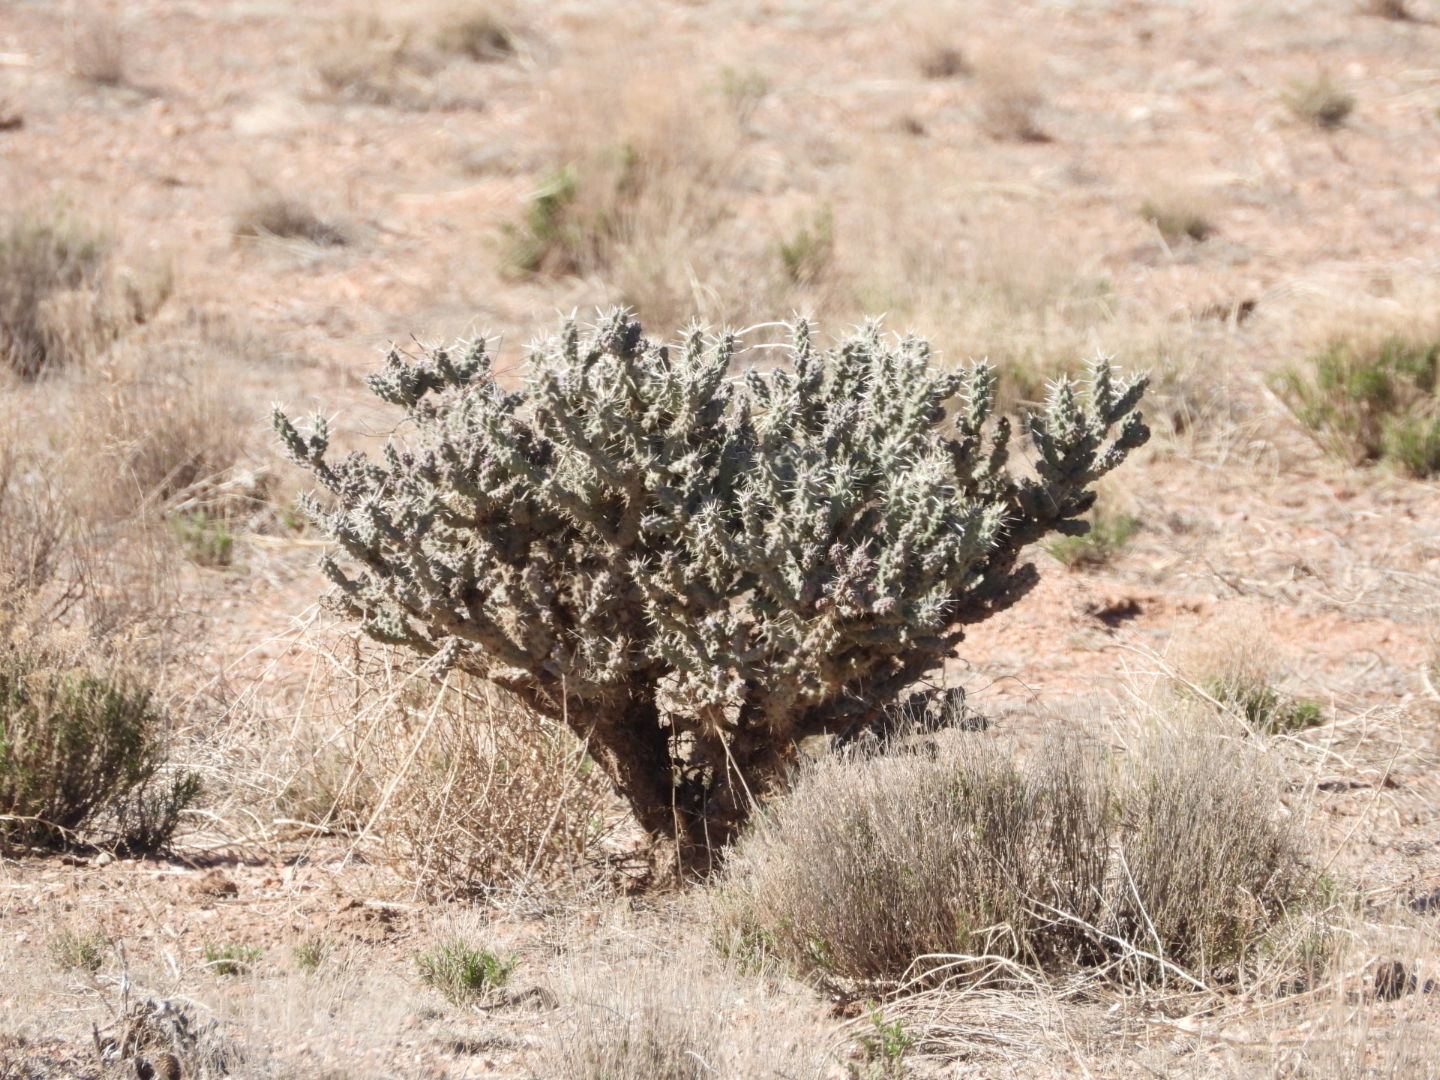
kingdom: Plantae
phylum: Tracheophyta
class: Magnoliopsida
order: Caryophyllales
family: Cactaceae
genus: Cylindropuntia
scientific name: Cylindropuntia whipplei
